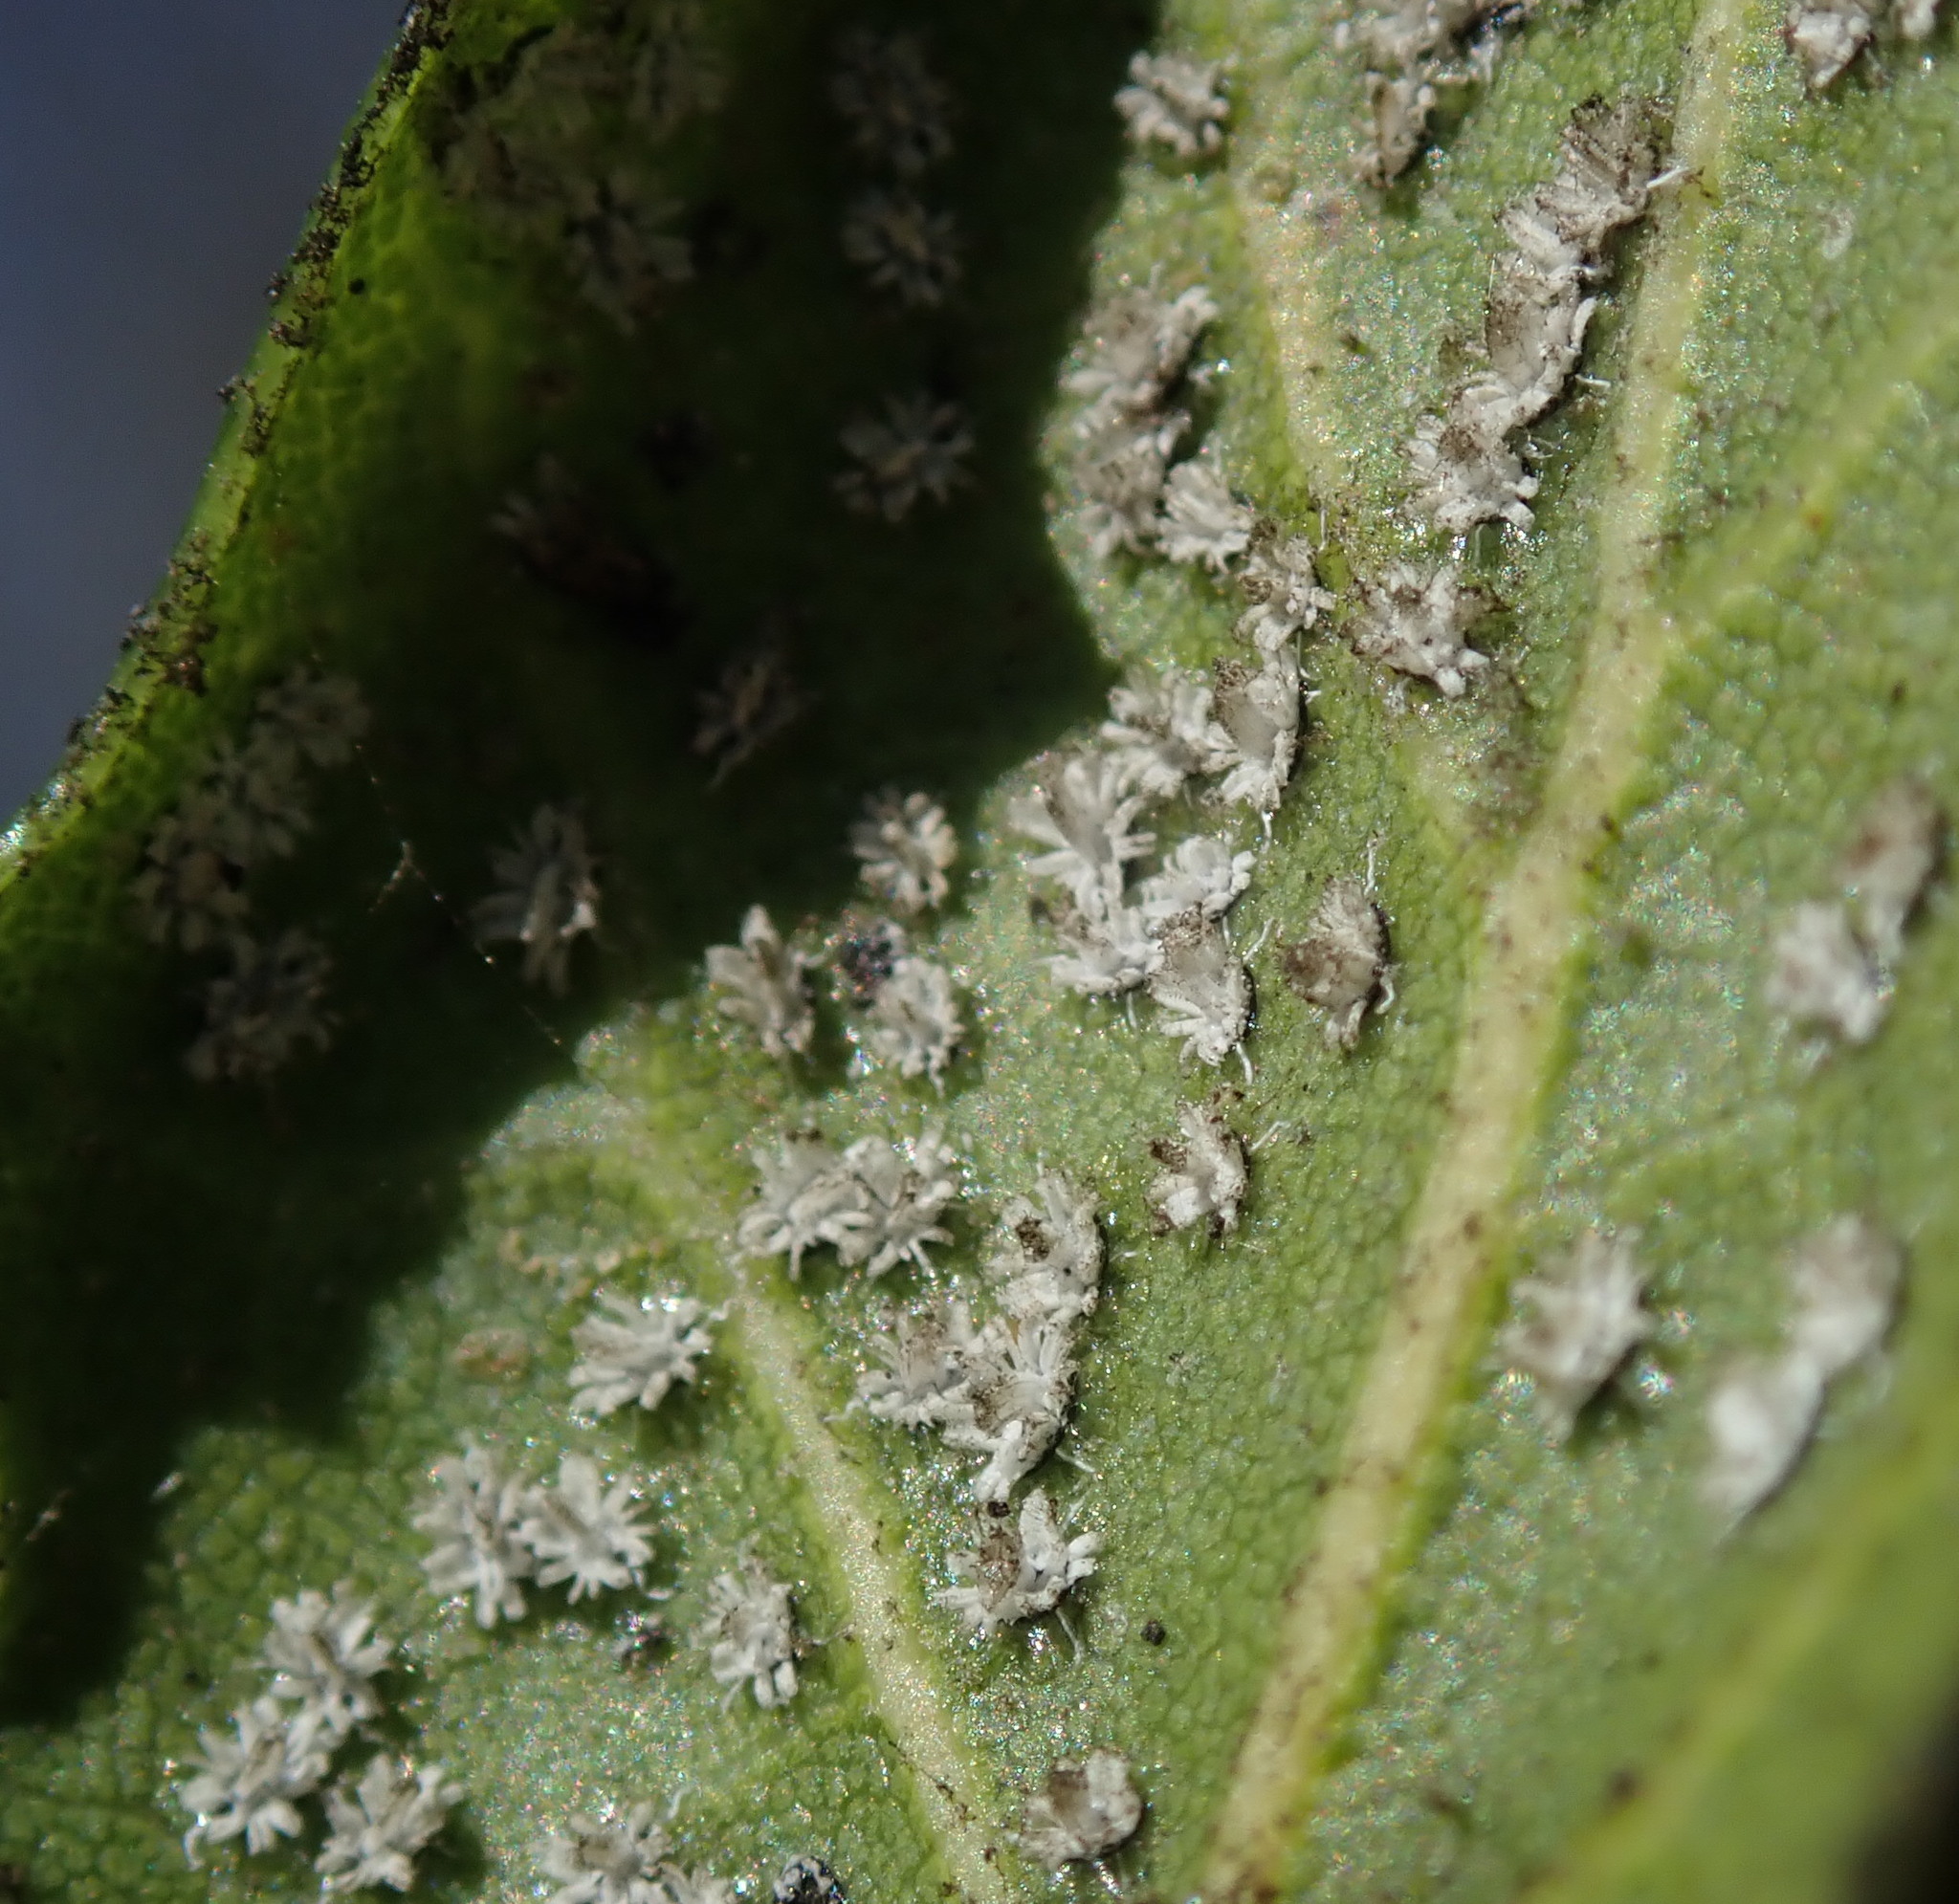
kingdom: Animalia
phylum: Arthropoda
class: Insecta
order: Hemiptera
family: Aleyrodidae
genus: Aleuroplatus
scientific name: Aleuroplatus coronata
